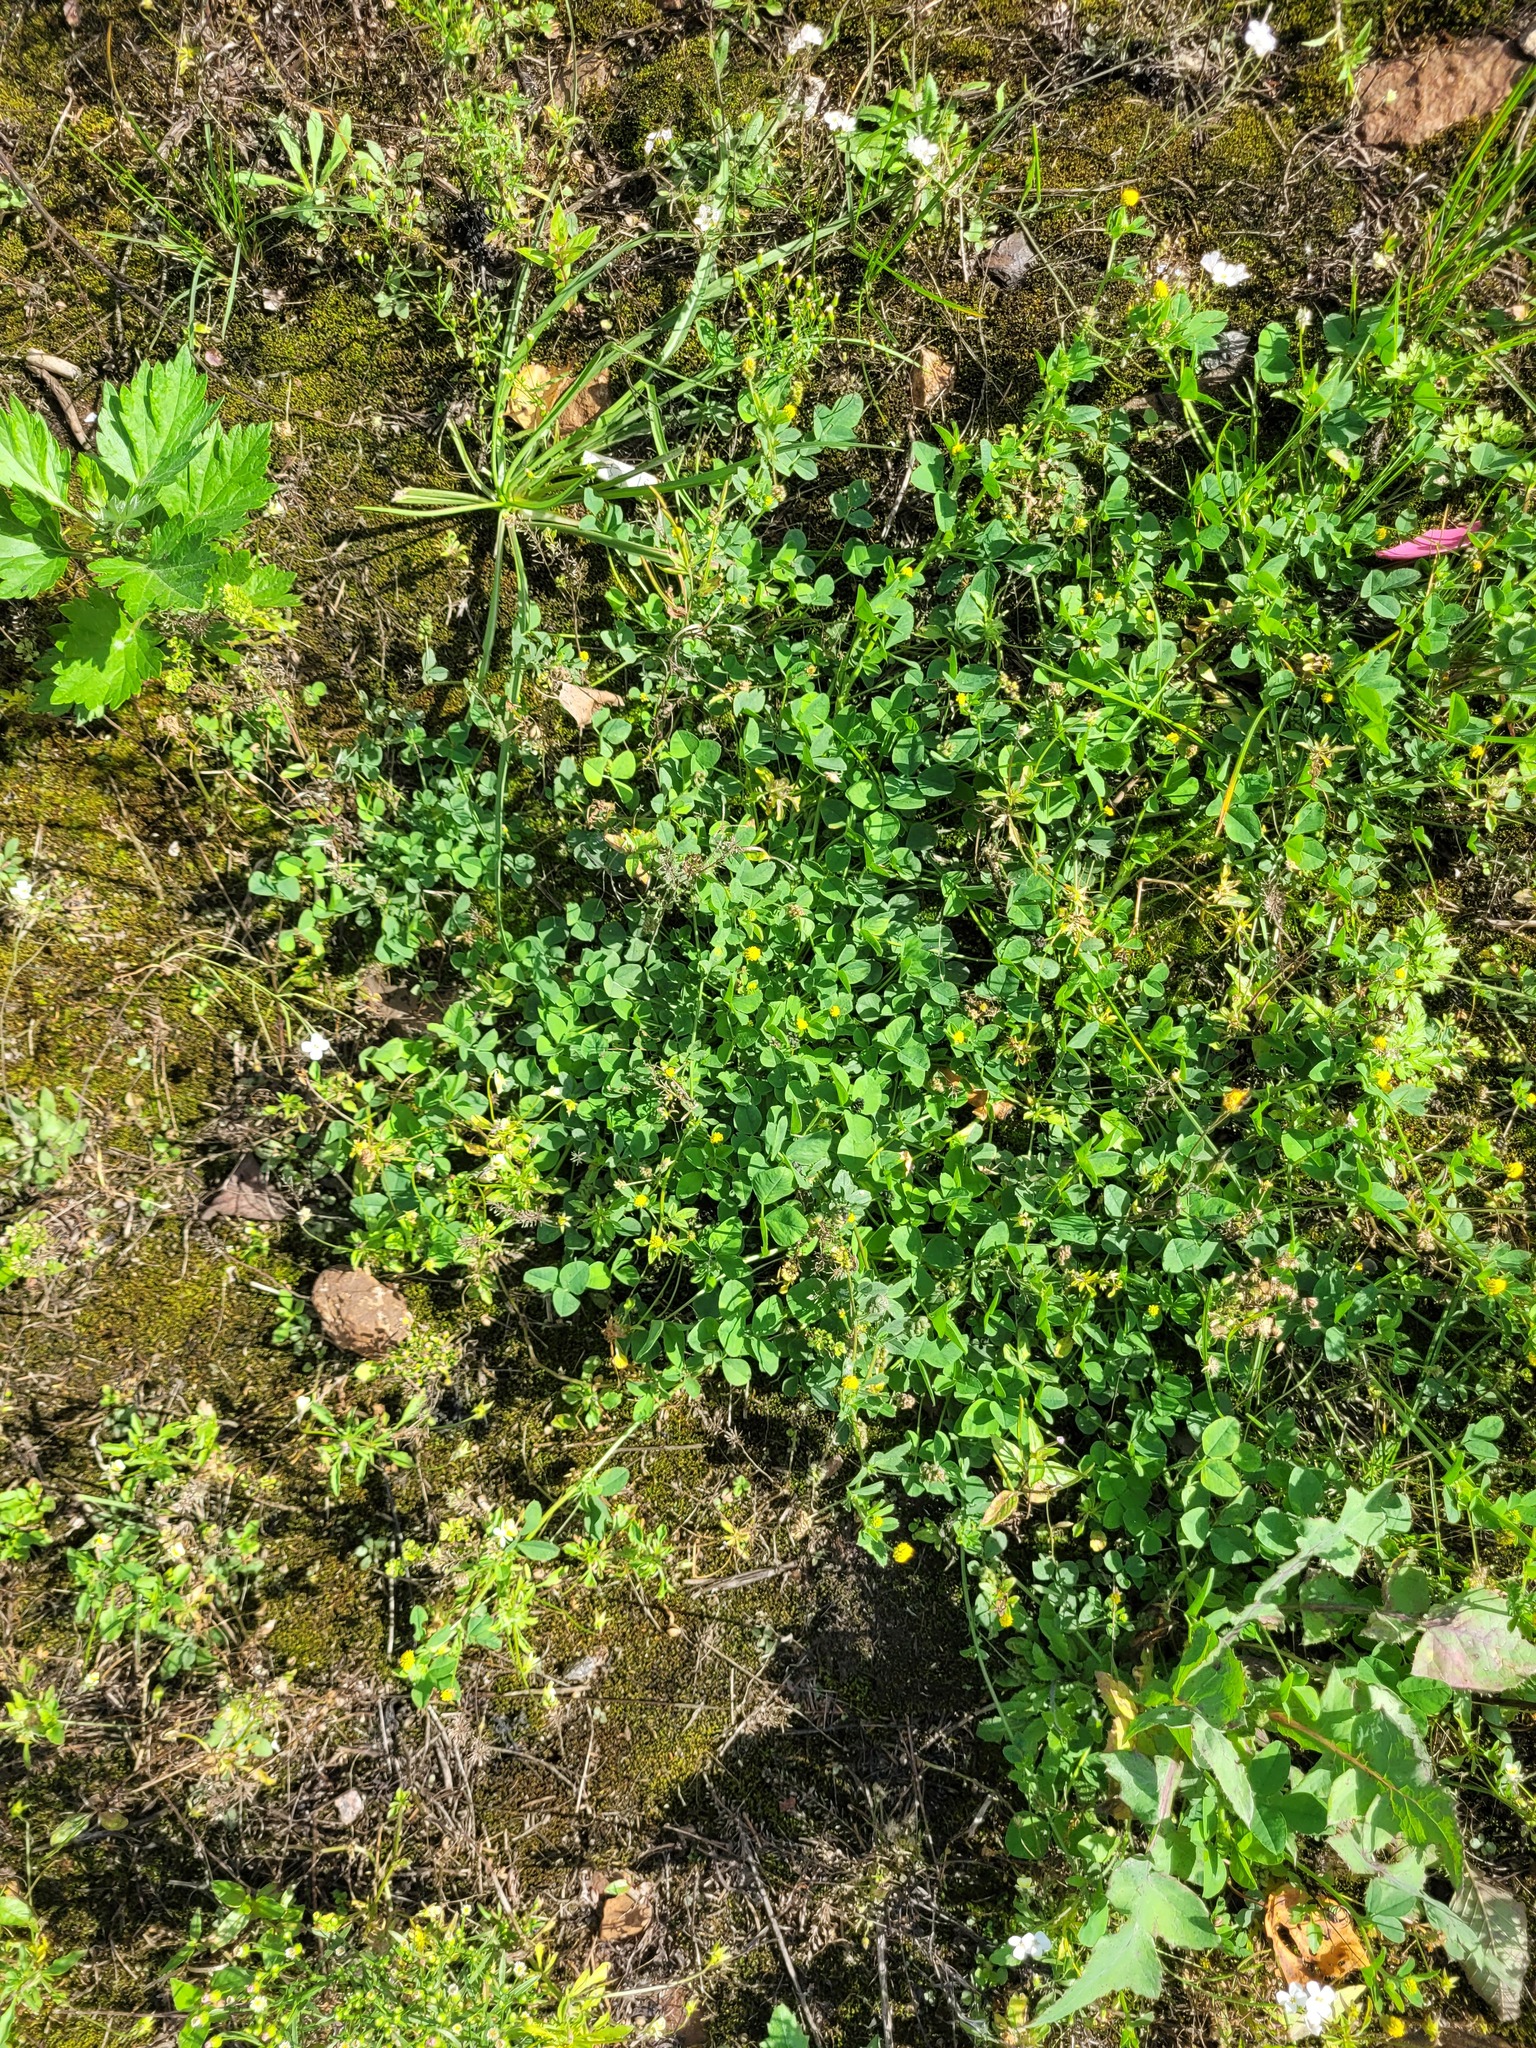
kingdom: Plantae
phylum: Tracheophyta
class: Magnoliopsida
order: Fabales
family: Fabaceae
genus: Medicago
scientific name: Medicago lupulina
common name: Black medick
